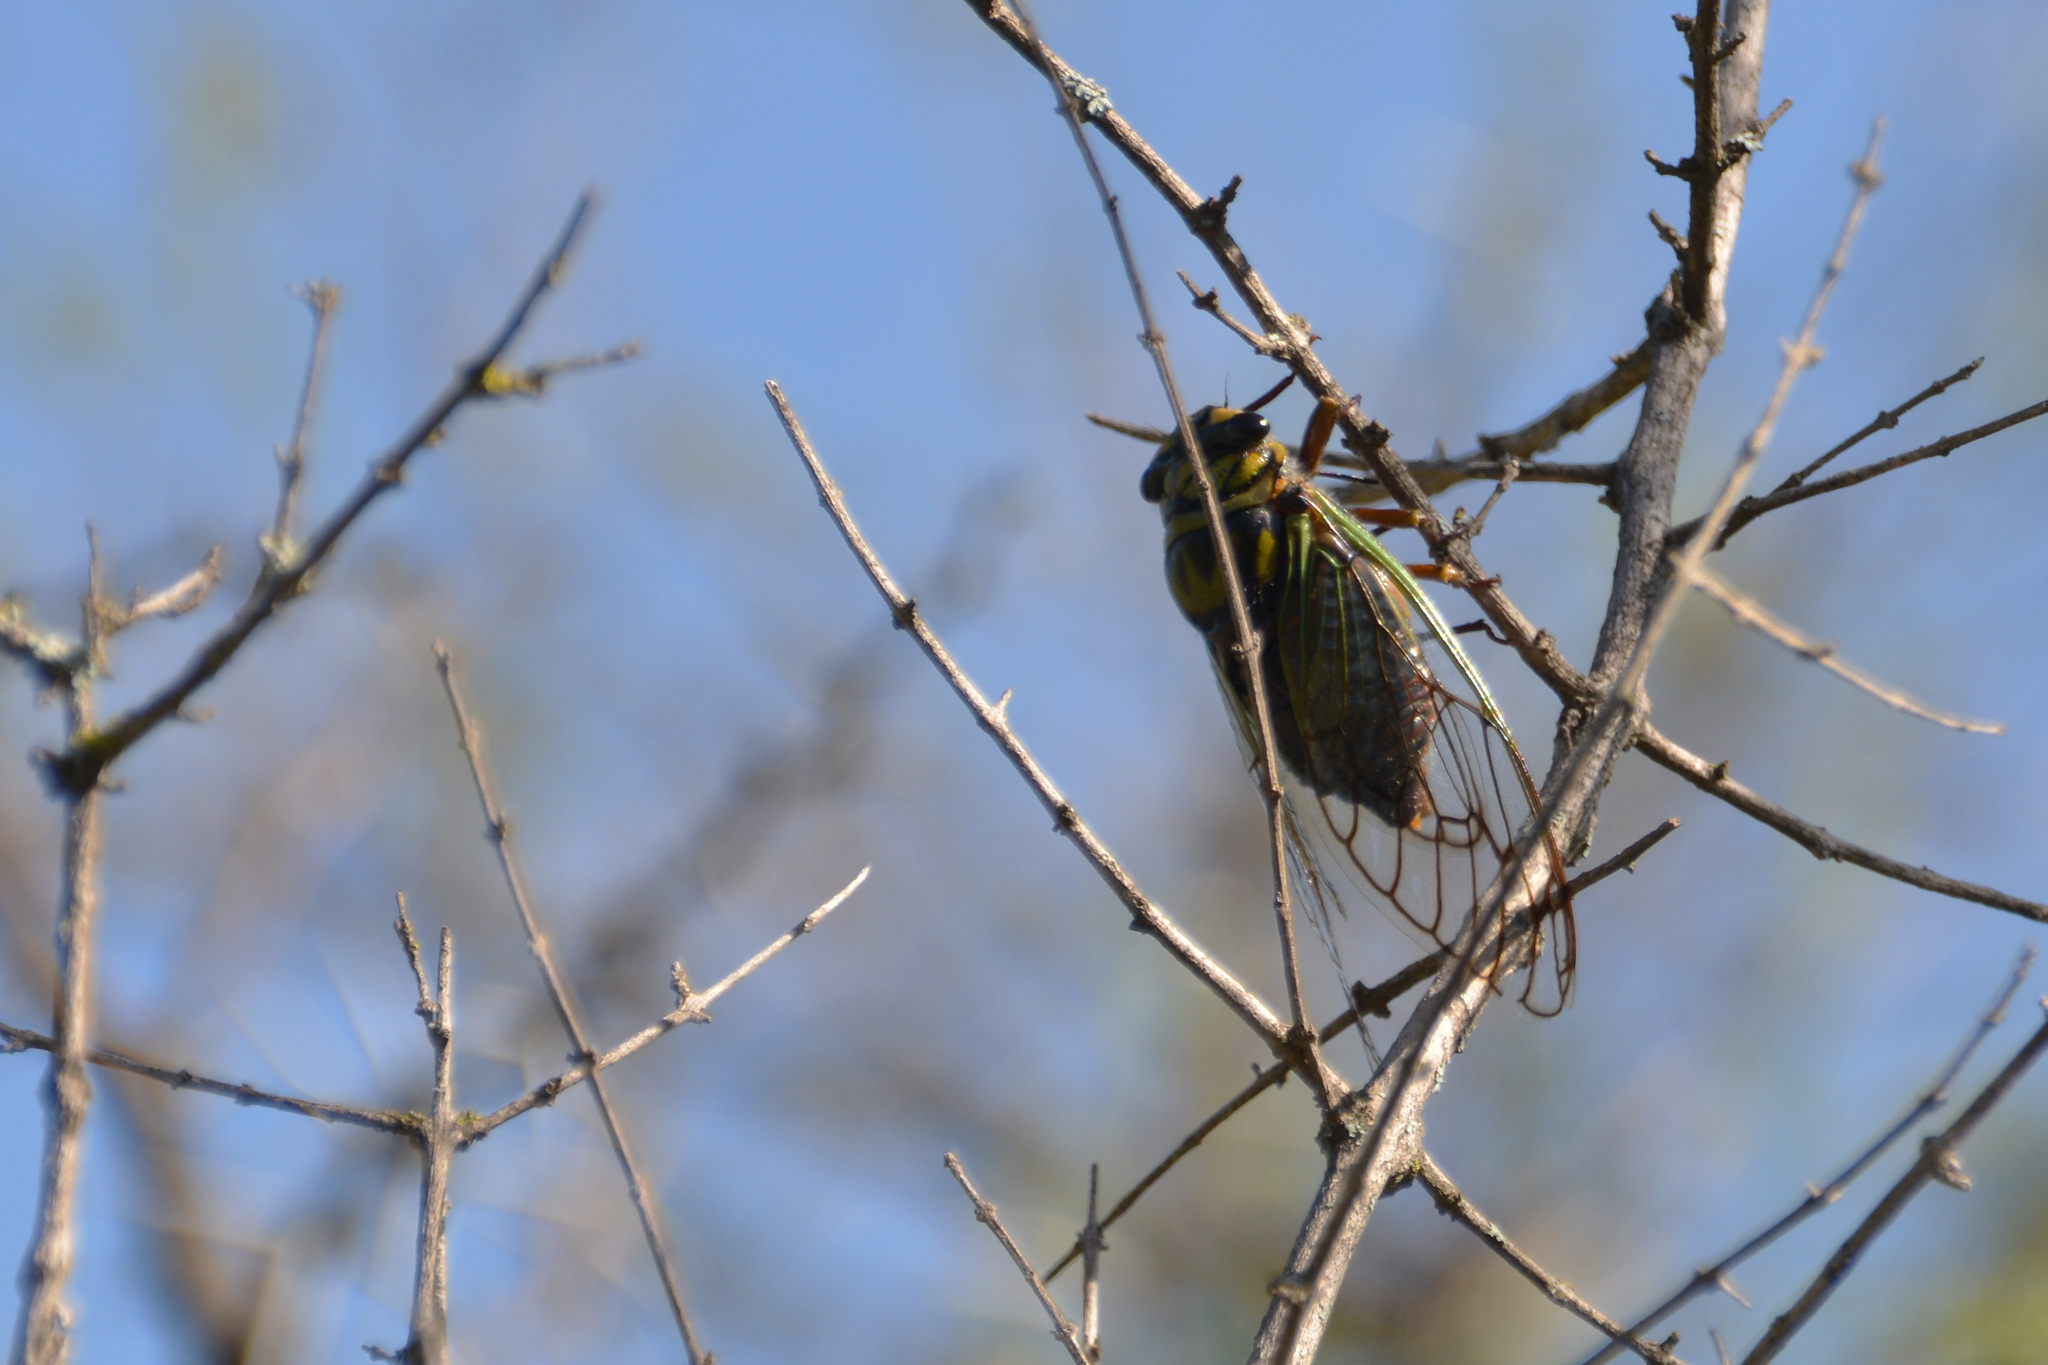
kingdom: Animalia
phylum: Arthropoda
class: Insecta
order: Hemiptera
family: Cicadidae
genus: Guyalna
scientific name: Guyalna bonaerensis
